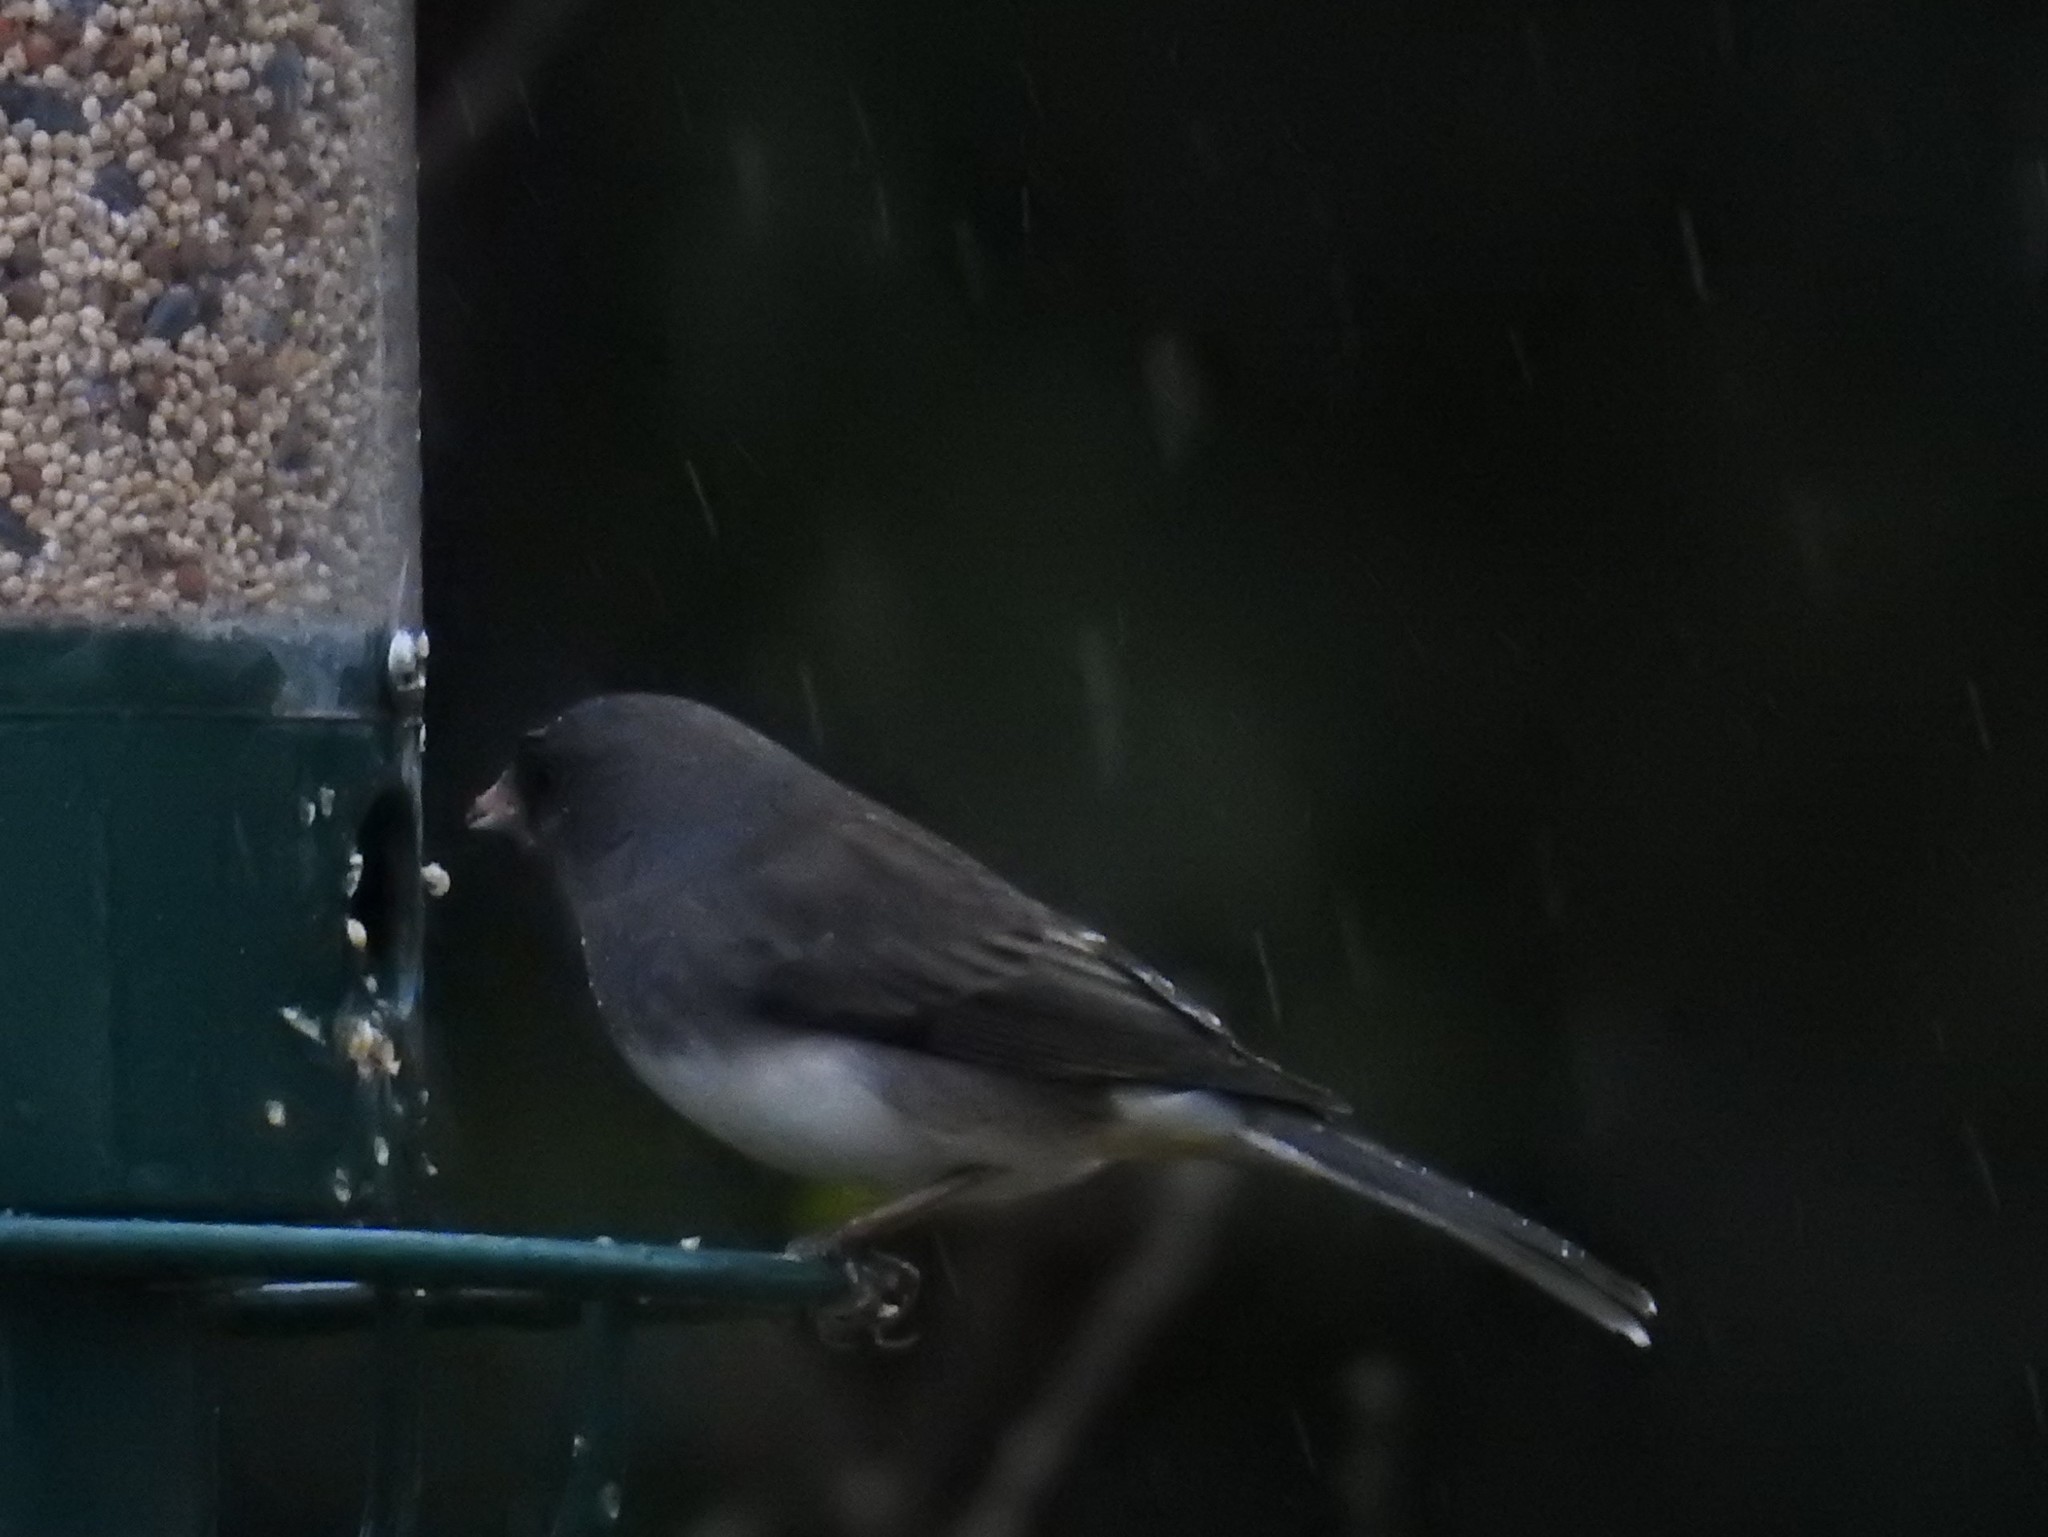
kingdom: Animalia
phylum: Chordata
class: Aves
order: Passeriformes
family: Passerellidae
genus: Junco
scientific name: Junco hyemalis
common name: Dark-eyed junco
